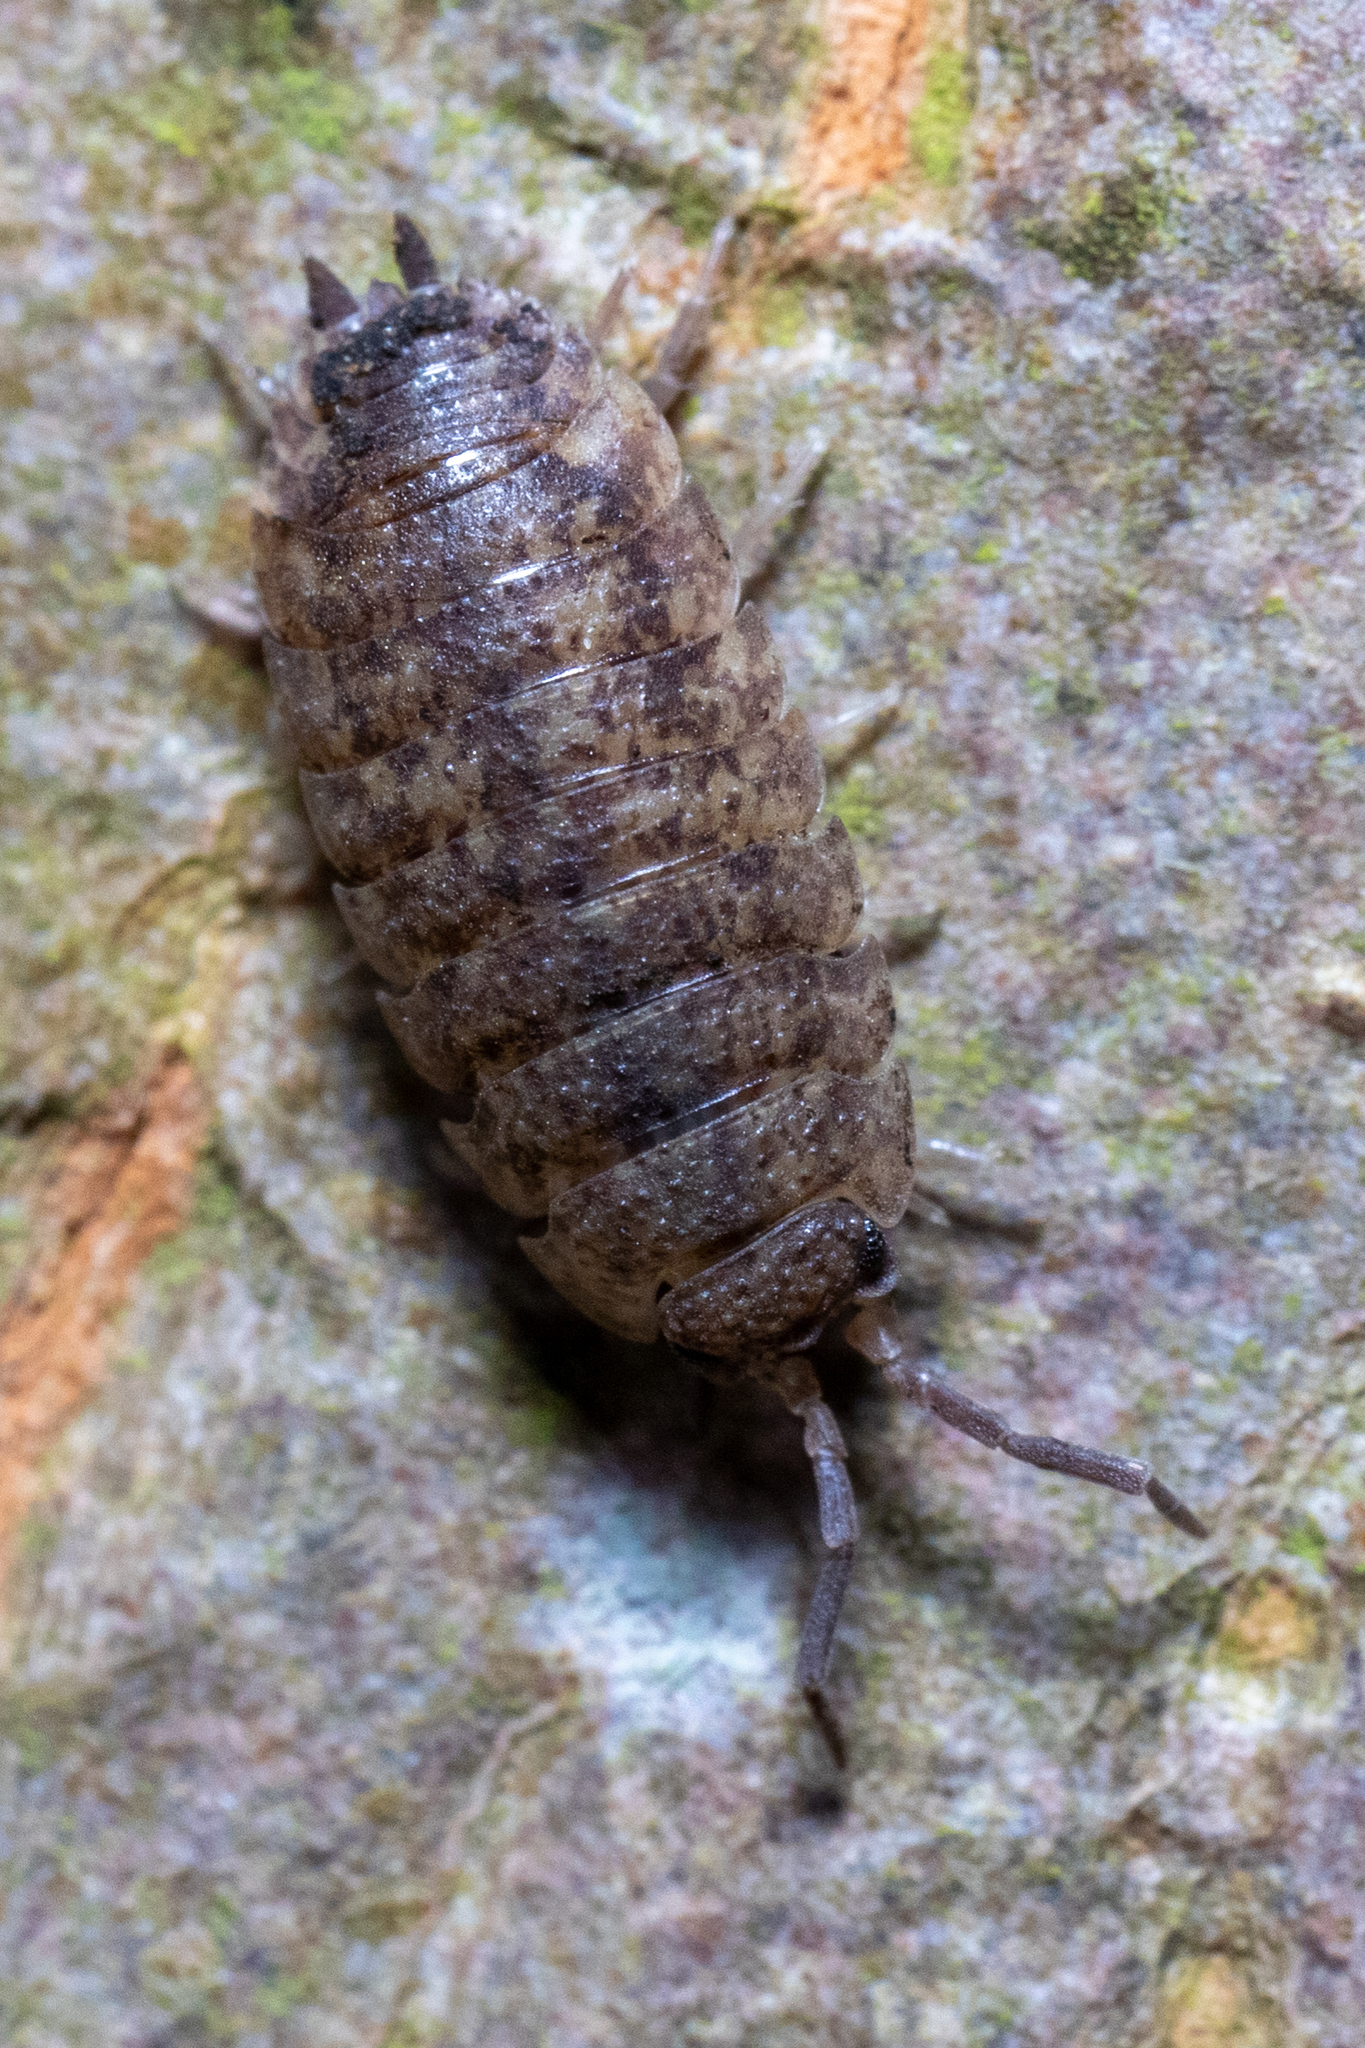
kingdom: Animalia
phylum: Arthropoda
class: Malacostraca
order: Isopoda
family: Porcellionidae
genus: Porcellio
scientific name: Porcellio scaber
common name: Common rough woodlouse
